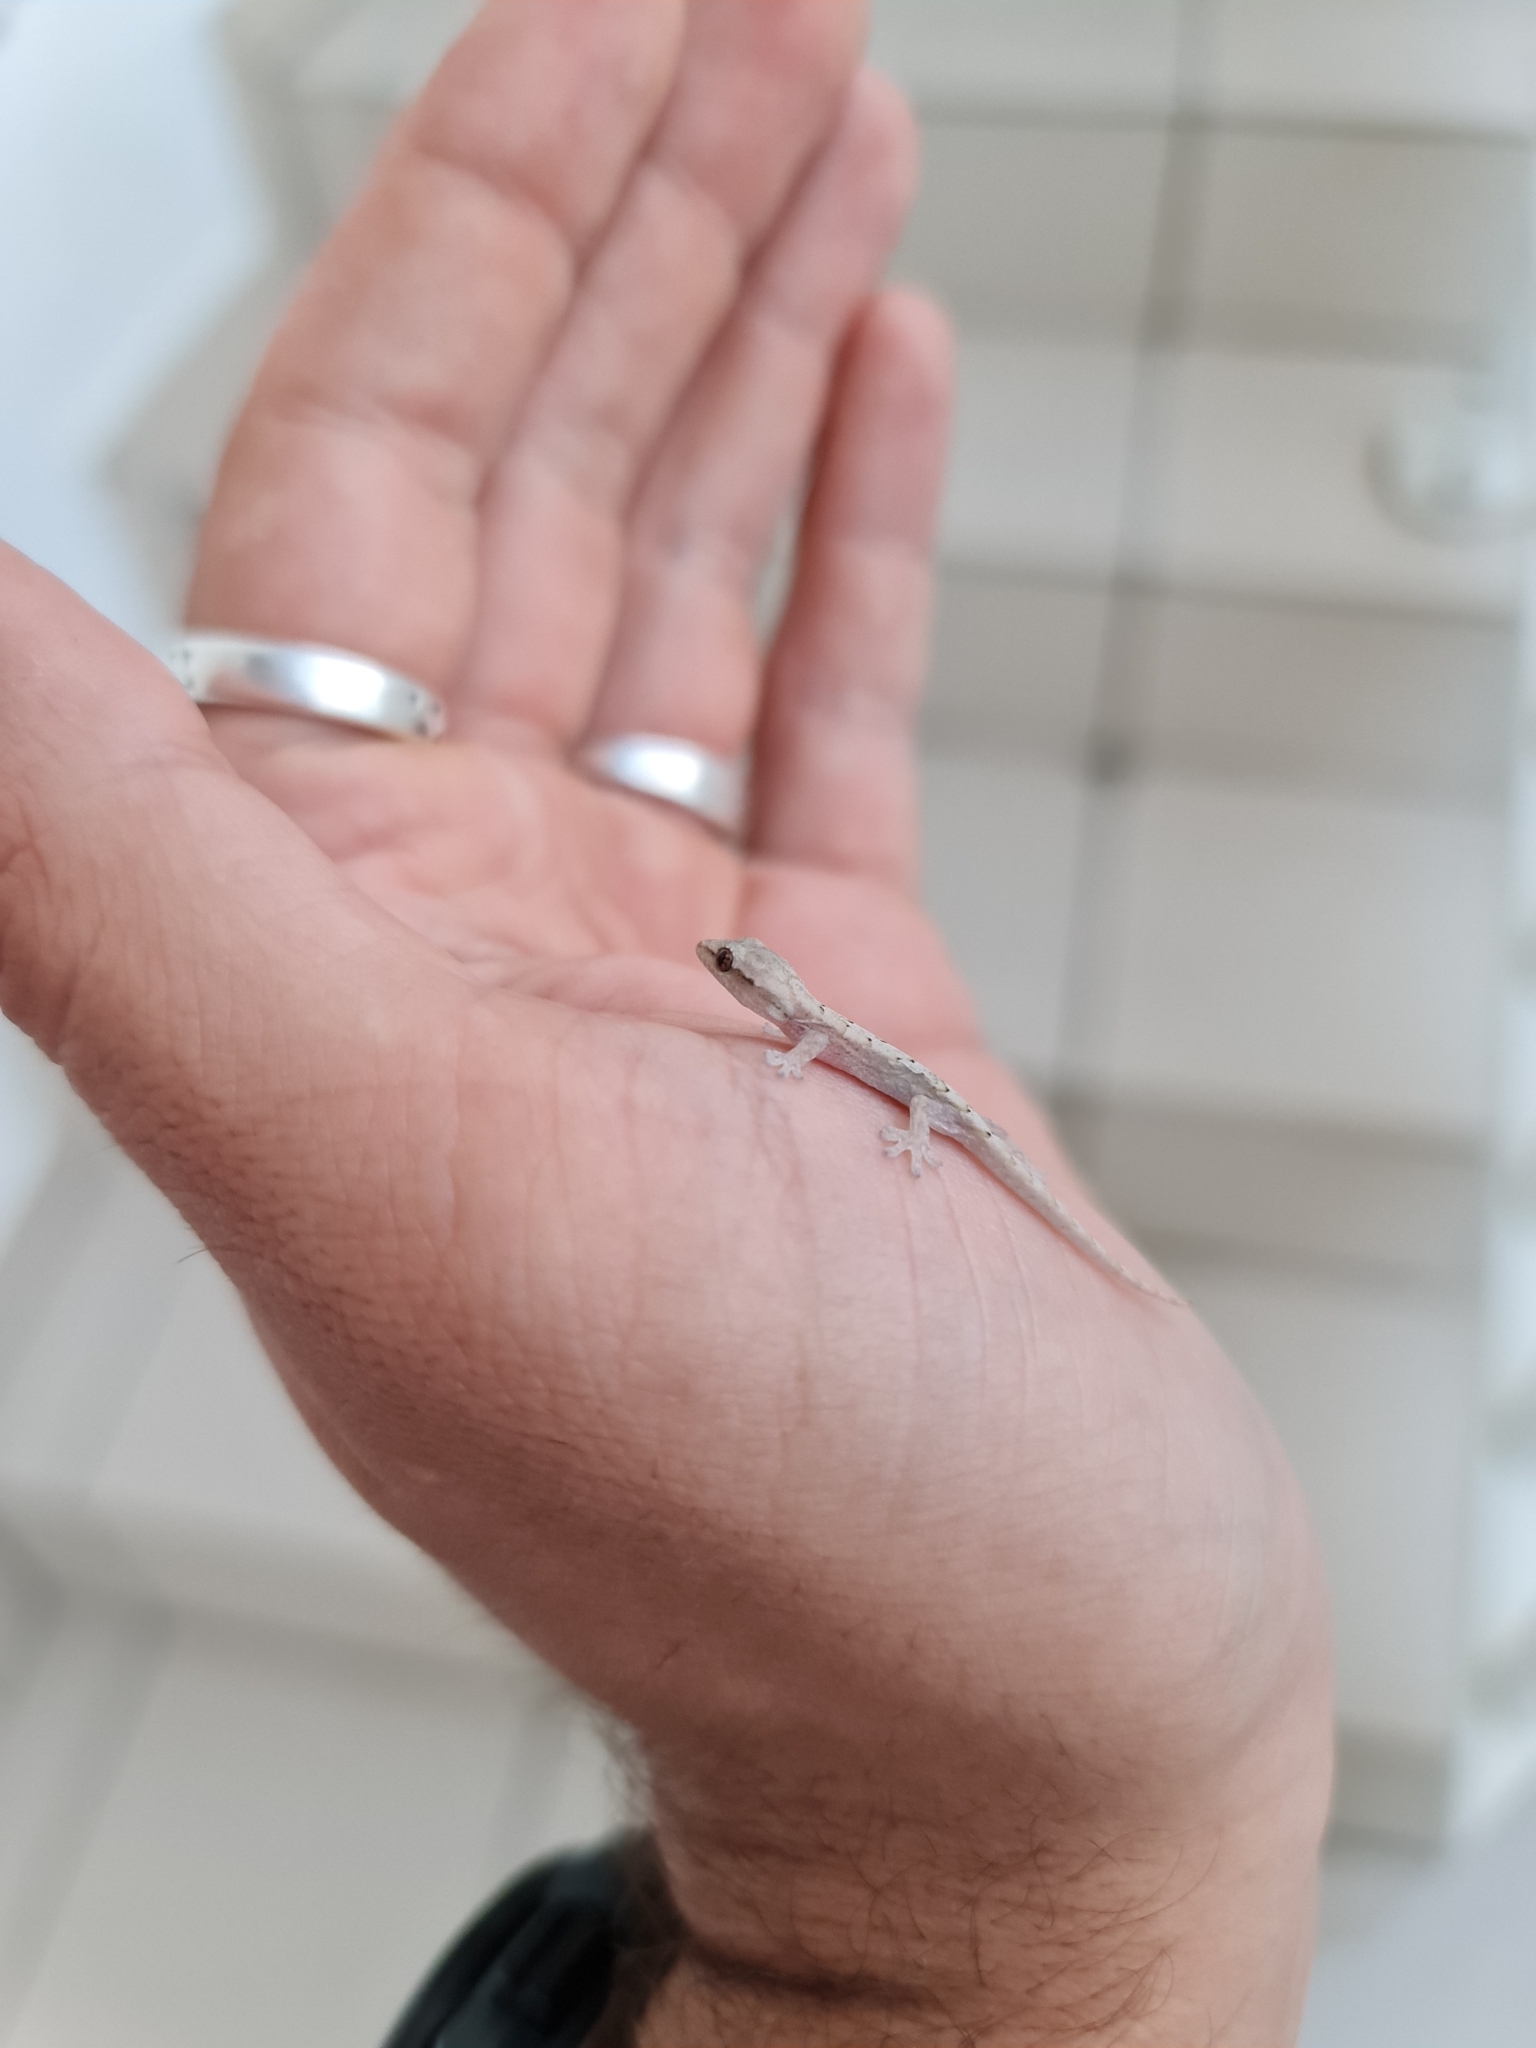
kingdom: Animalia
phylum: Chordata
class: Squamata
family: Gekkonidae
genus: Lepidodactylus
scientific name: Lepidodactylus lugubris
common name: Mourning gecko
